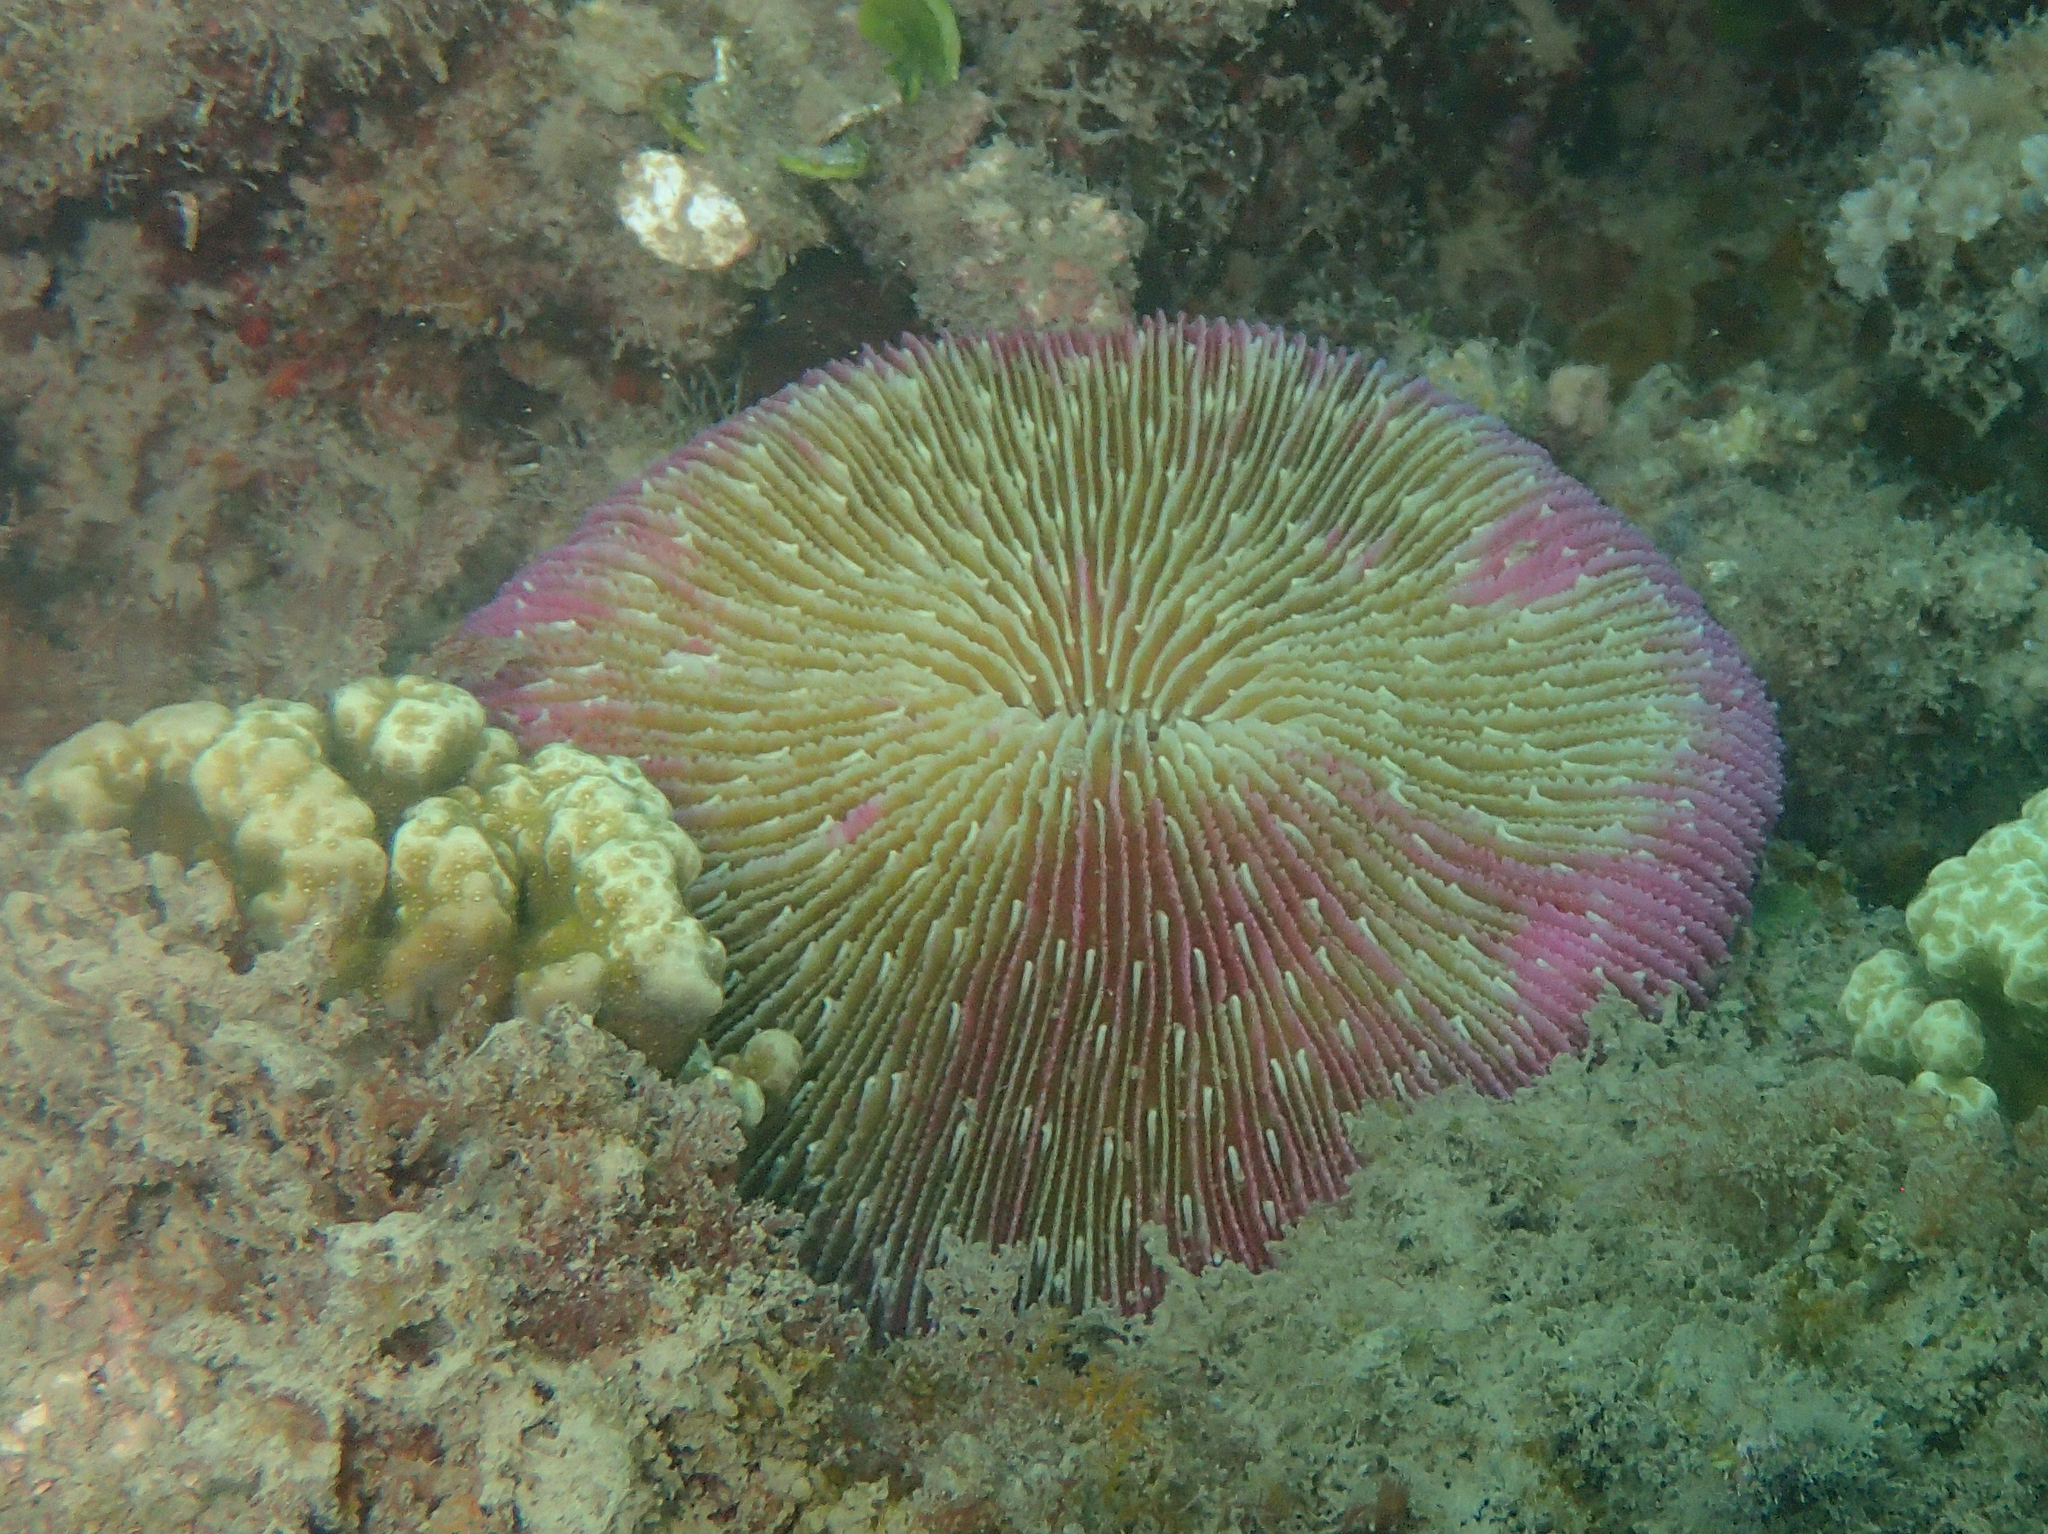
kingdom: Animalia
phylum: Cnidaria
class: Anthozoa
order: Scleractinia
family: Fungiidae
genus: Fungia
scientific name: Fungia fungites
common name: Mushroom coral
